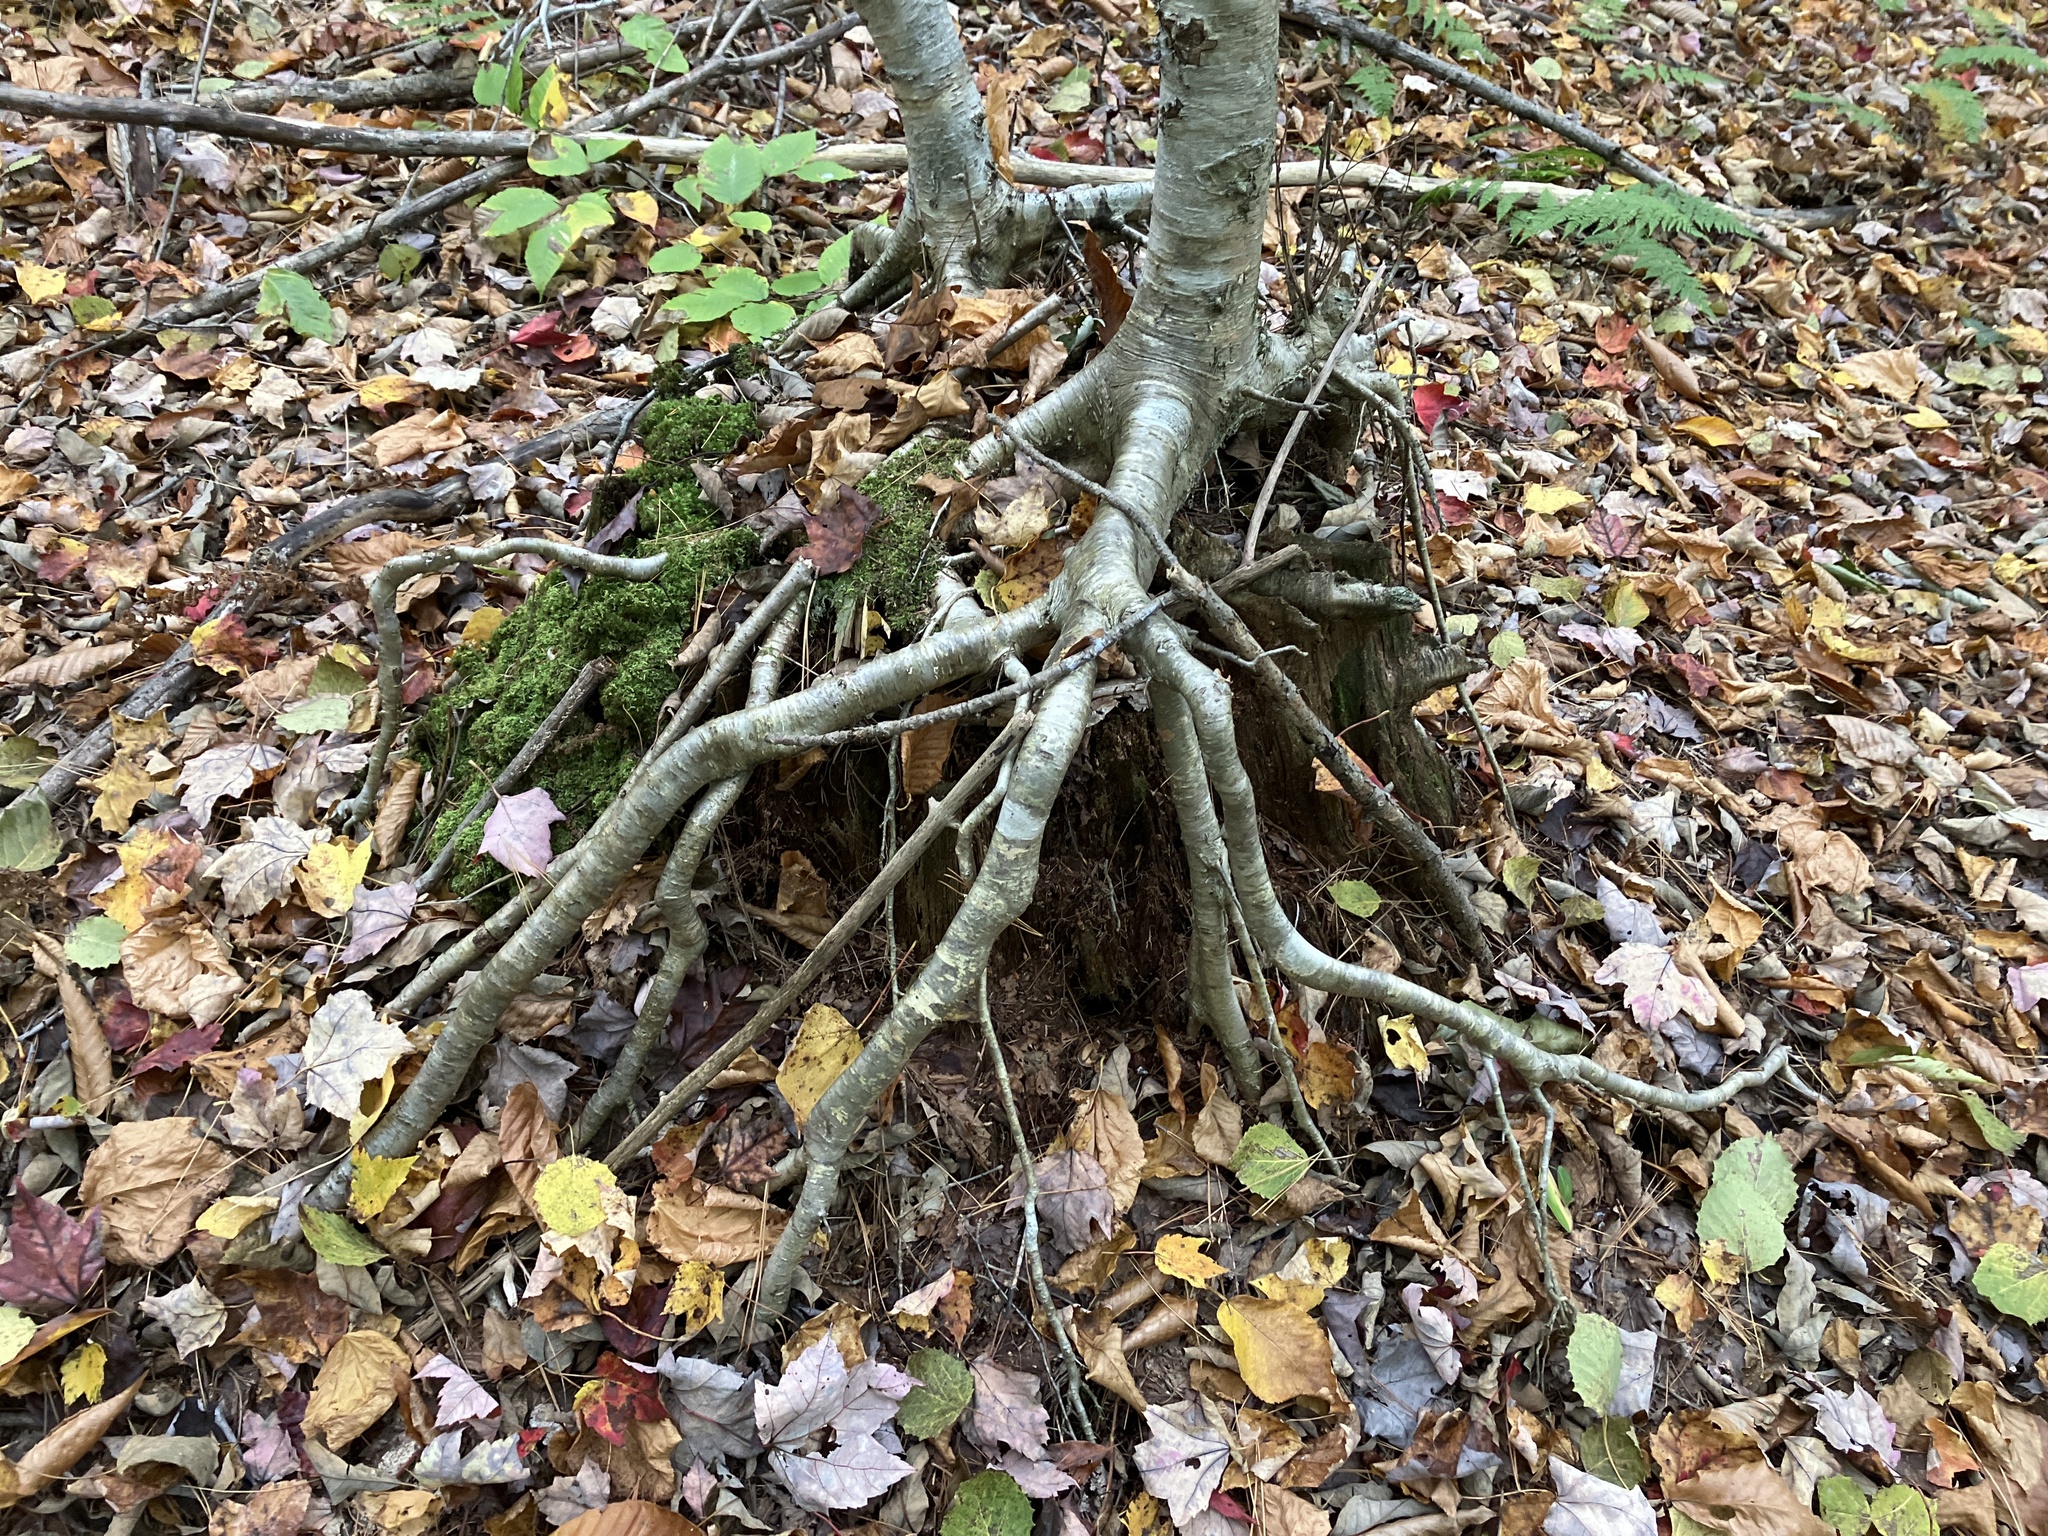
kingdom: Plantae
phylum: Tracheophyta
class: Magnoliopsida
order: Fagales
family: Betulaceae
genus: Betula
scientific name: Betula alleghaniensis
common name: Yellow birch
